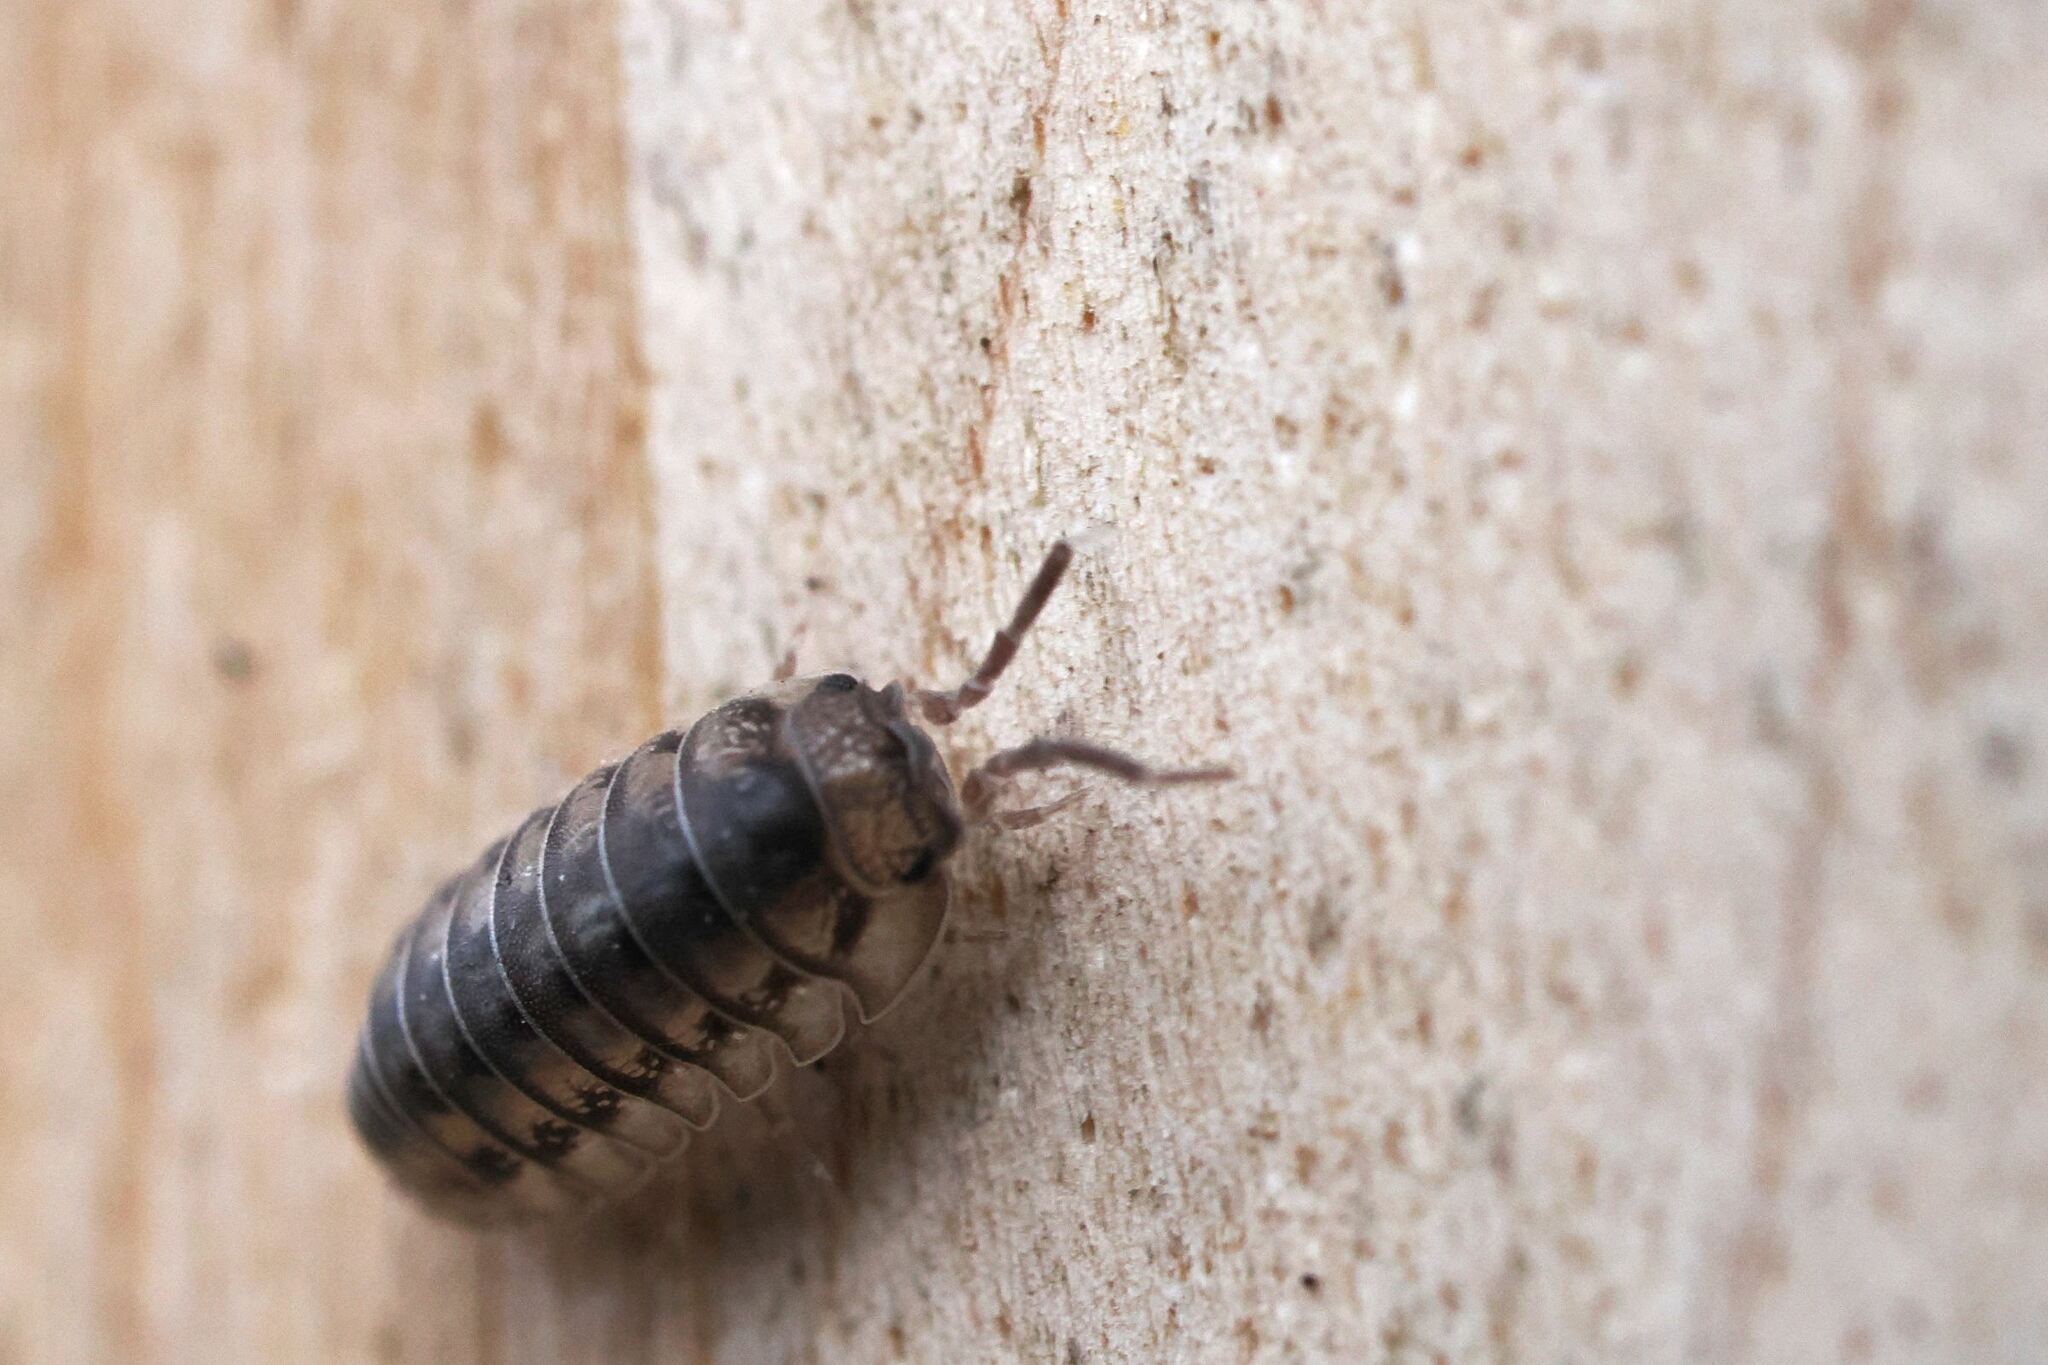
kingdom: Animalia
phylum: Arthropoda
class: Malacostraca
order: Isopoda
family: Armadillidiidae
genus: Armadillidium
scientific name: Armadillidium nasatum
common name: Isopod
